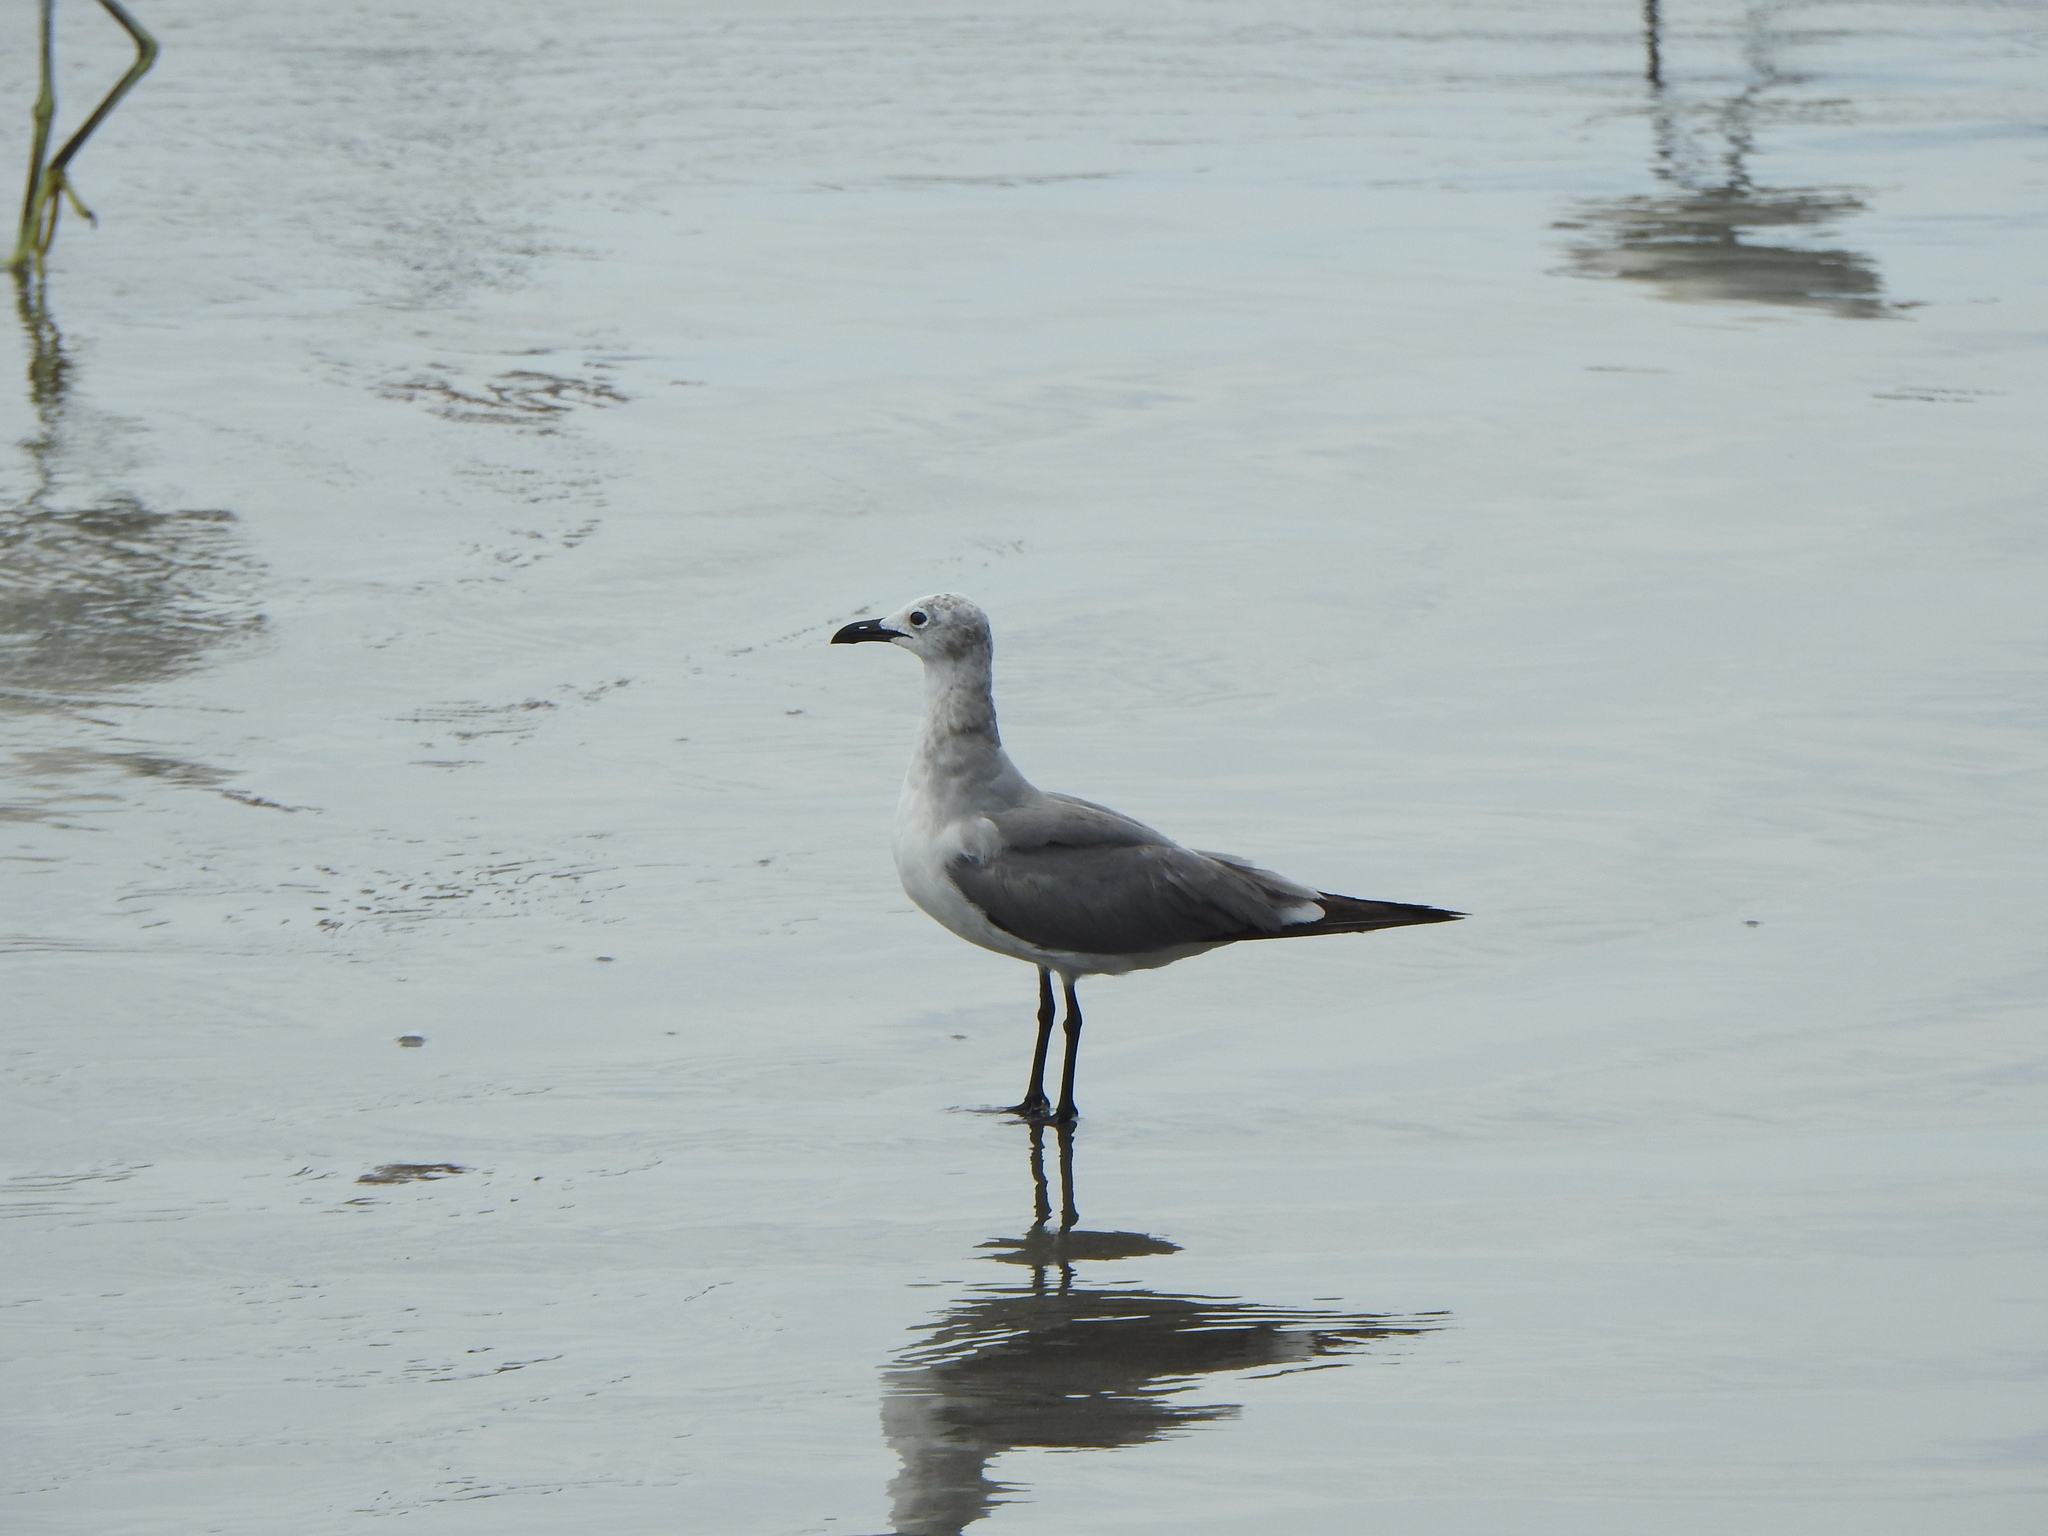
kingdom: Animalia
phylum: Chordata
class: Aves
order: Charadriiformes
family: Laridae
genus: Leucophaeus
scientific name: Leucophaeus atricilla
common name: Laughing gull
